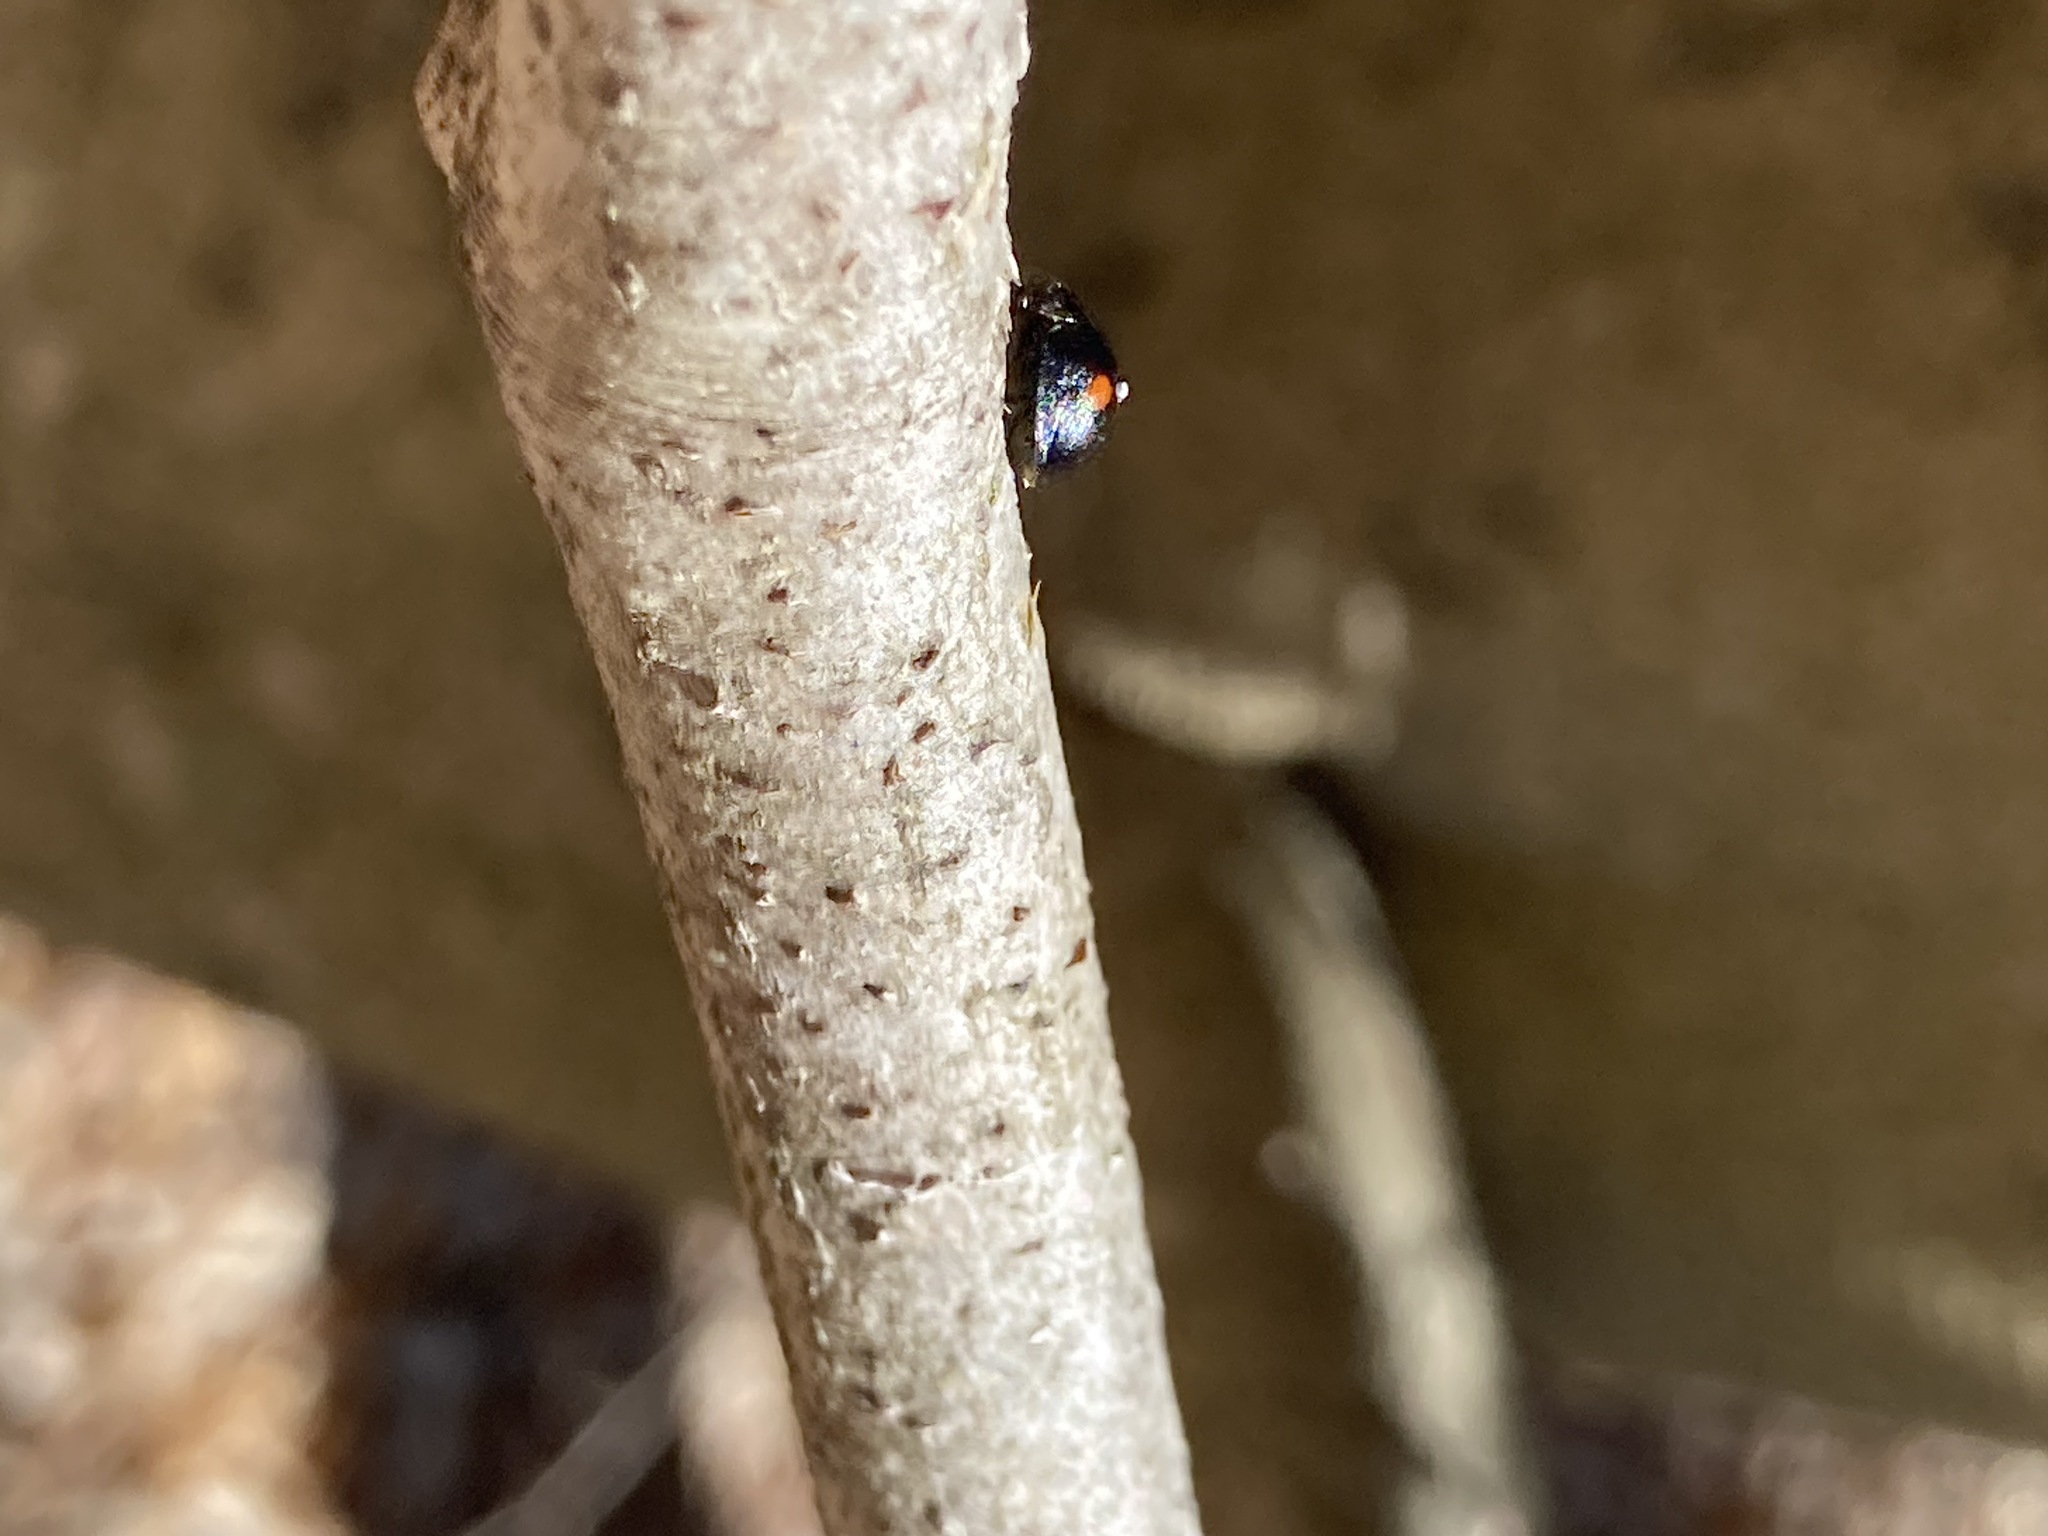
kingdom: Animalia
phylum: Arthropoda
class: Insecta
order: Coleoptera
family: Coccinellidae
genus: Chilocorus
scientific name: Chilocorus stigma
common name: Twicestabbed lady beetle
